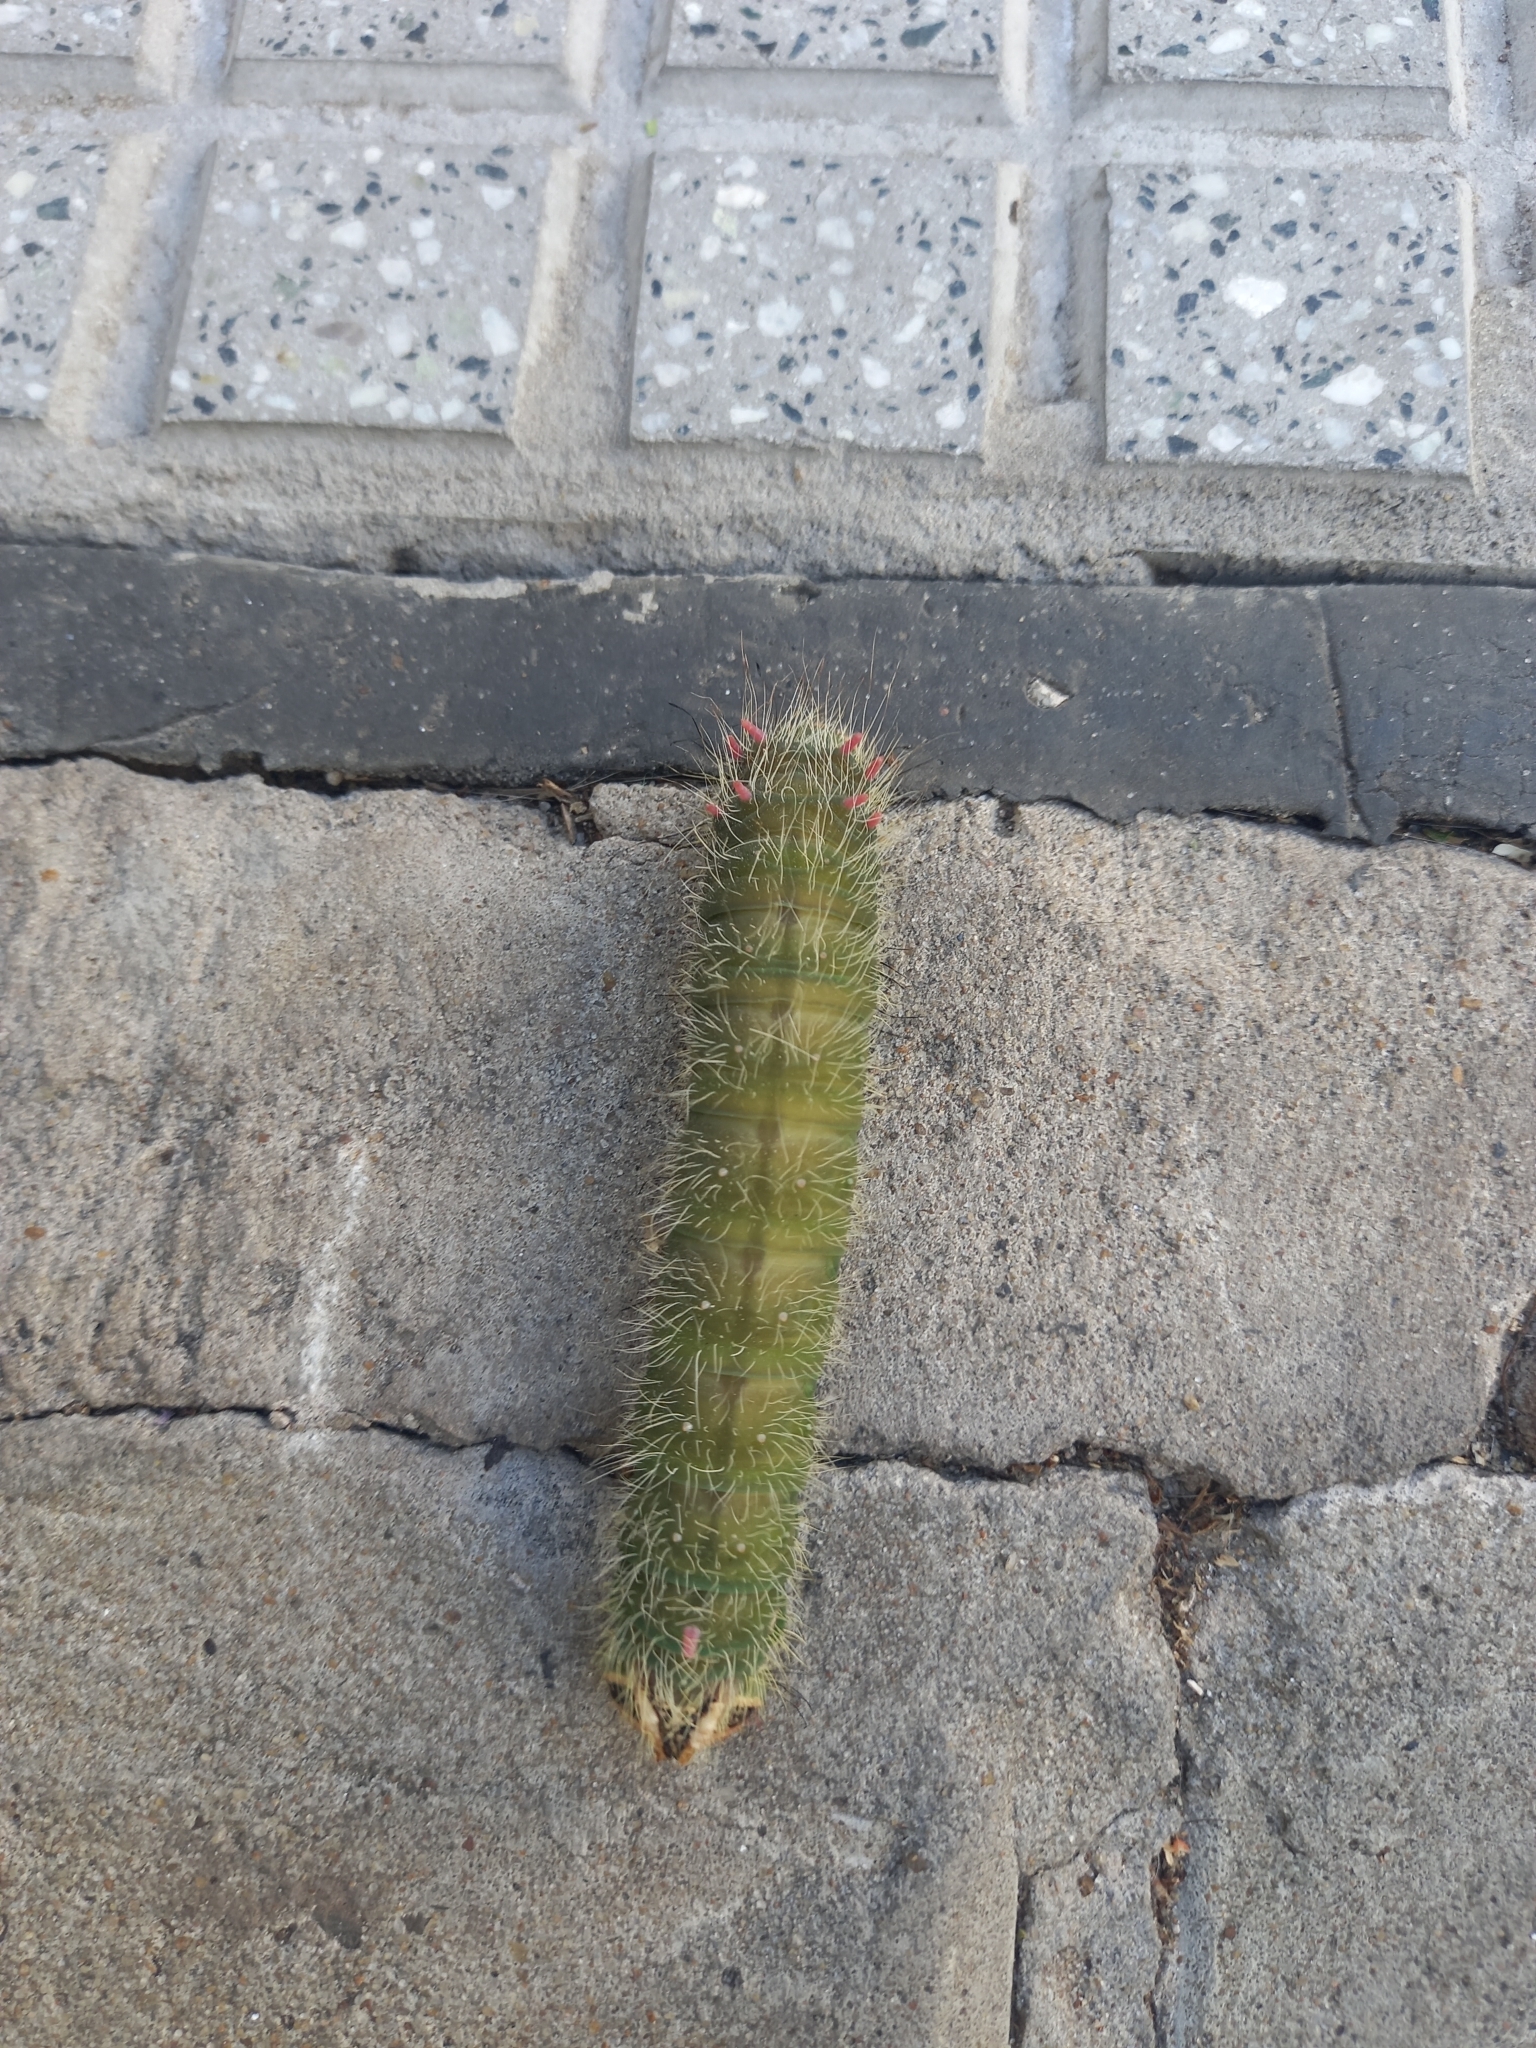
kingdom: Animalia
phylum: Arthropoda
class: Insecta
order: Lepidoptera
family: Saturniidae
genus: Eacles
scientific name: Eacles imperialis
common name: Imperial moth
